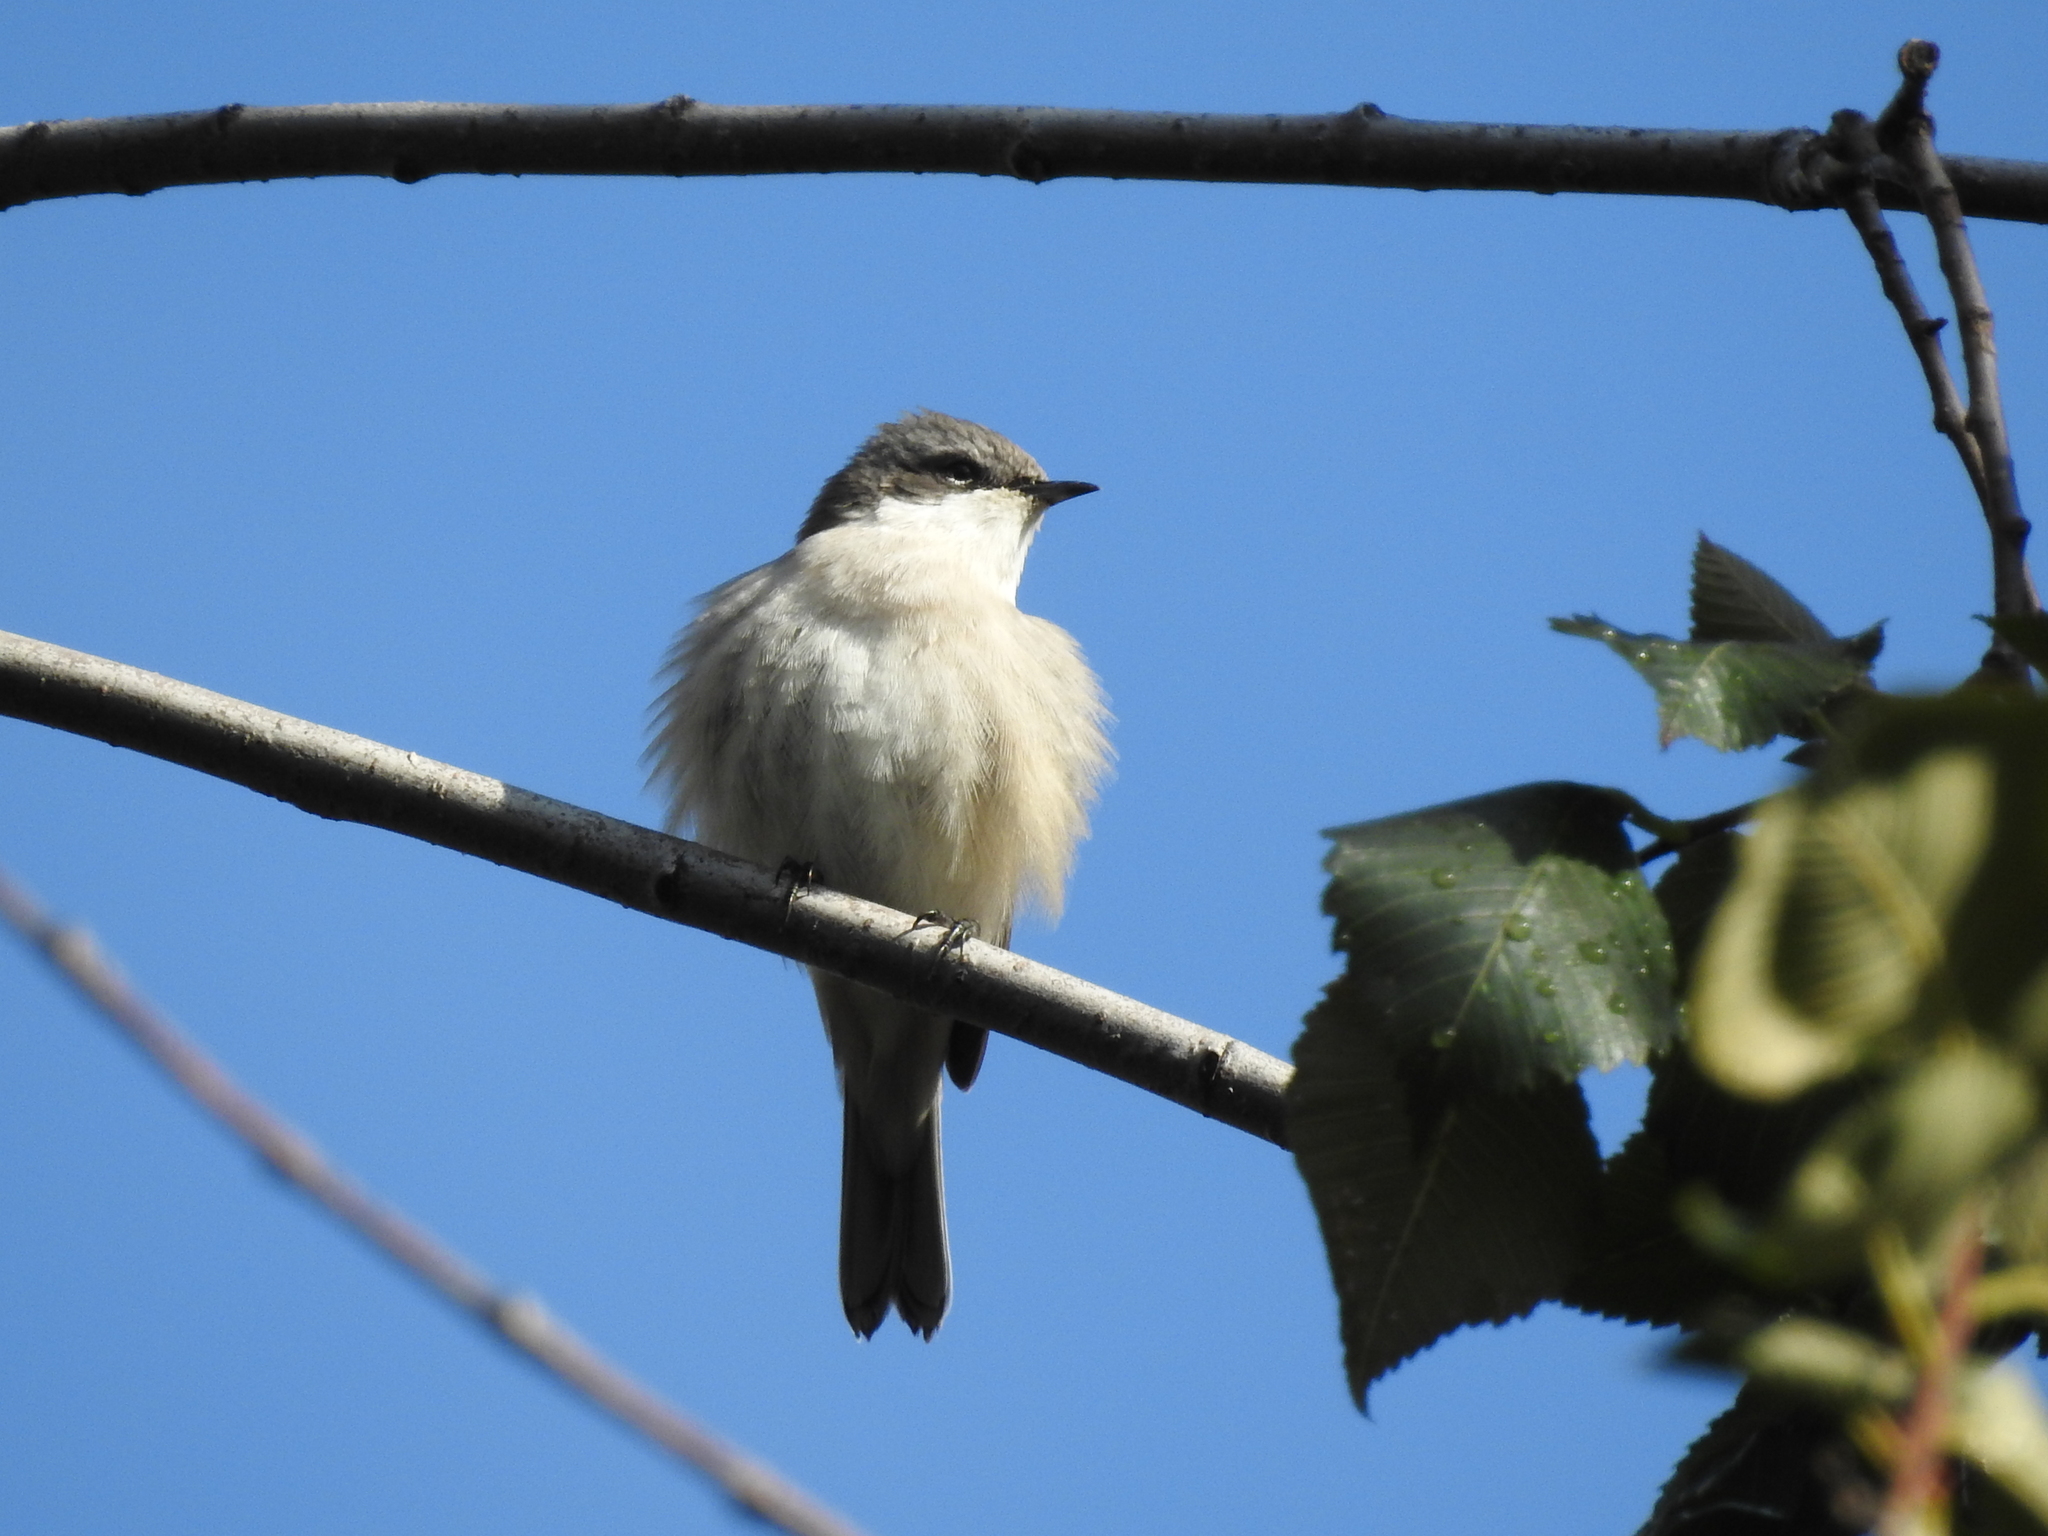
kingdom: Animalia
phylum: Chordata
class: Aves
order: Passeriformes
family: Sylviidae
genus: Sylvia
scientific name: Sylvia curruca
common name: Lesser whitethroat
